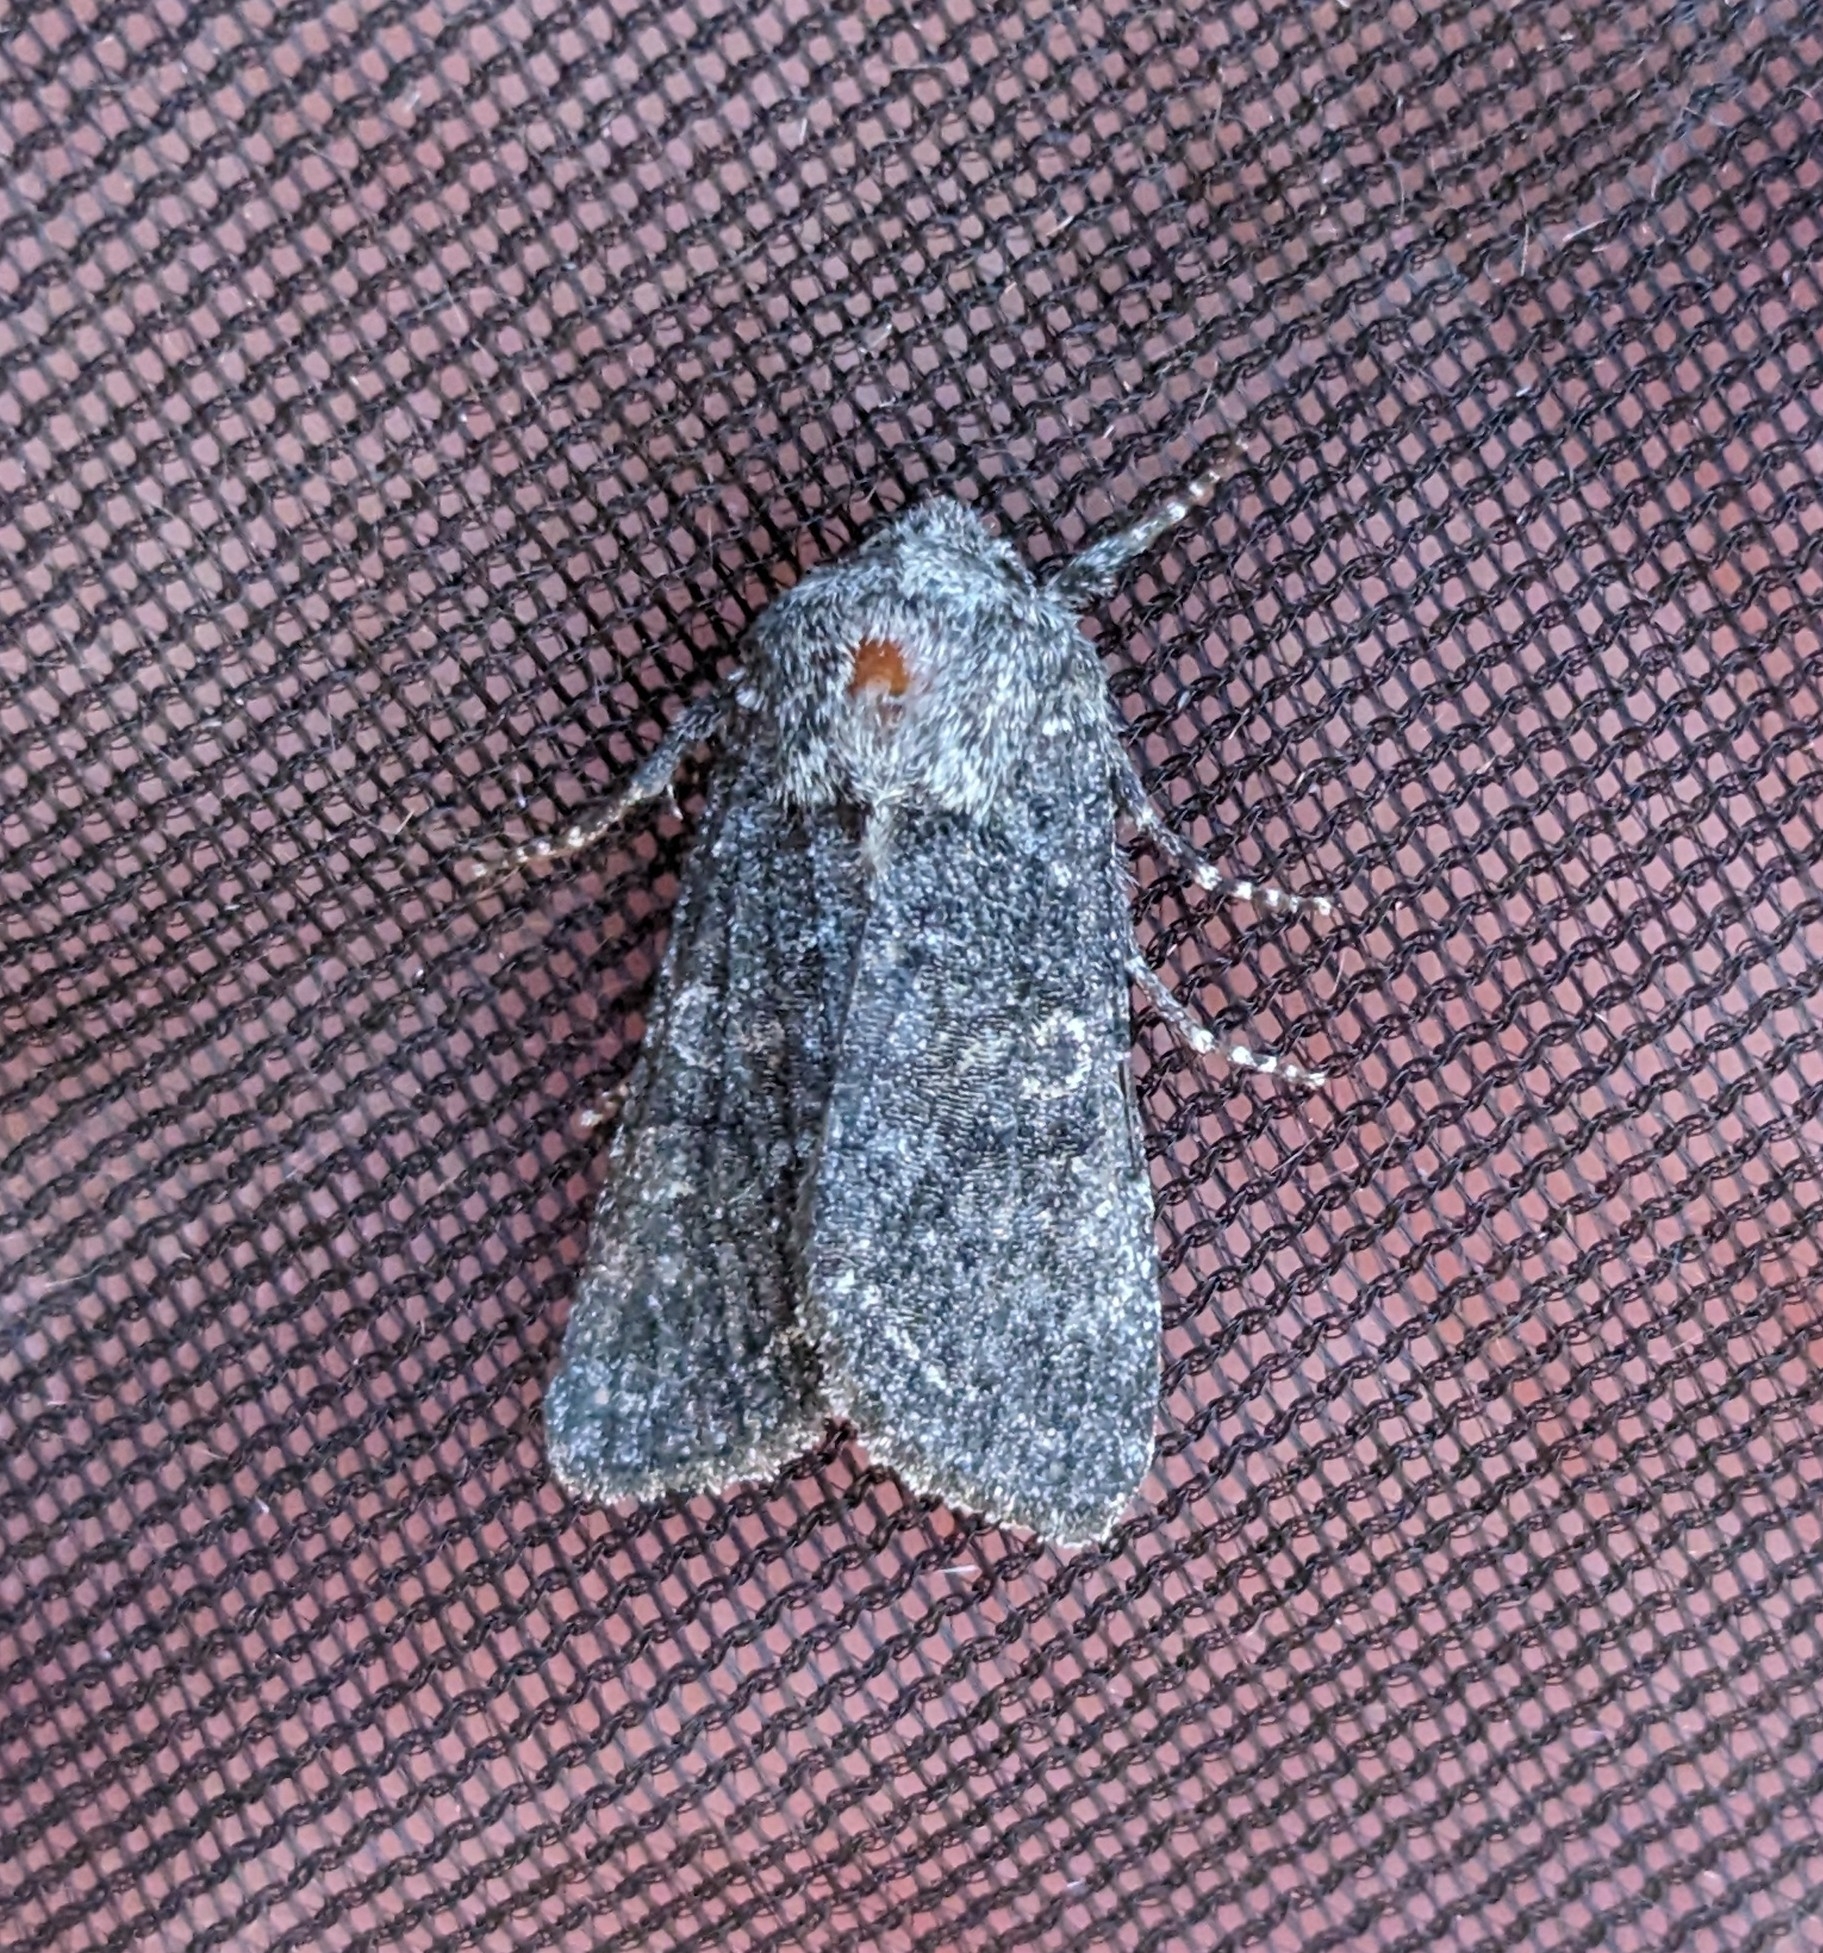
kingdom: Animalia
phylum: Arthropoda
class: Insecta
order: Lepidoptera
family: Noctuidae
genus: Egira
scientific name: Egira dolosa
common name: Lined black aspen cat.
